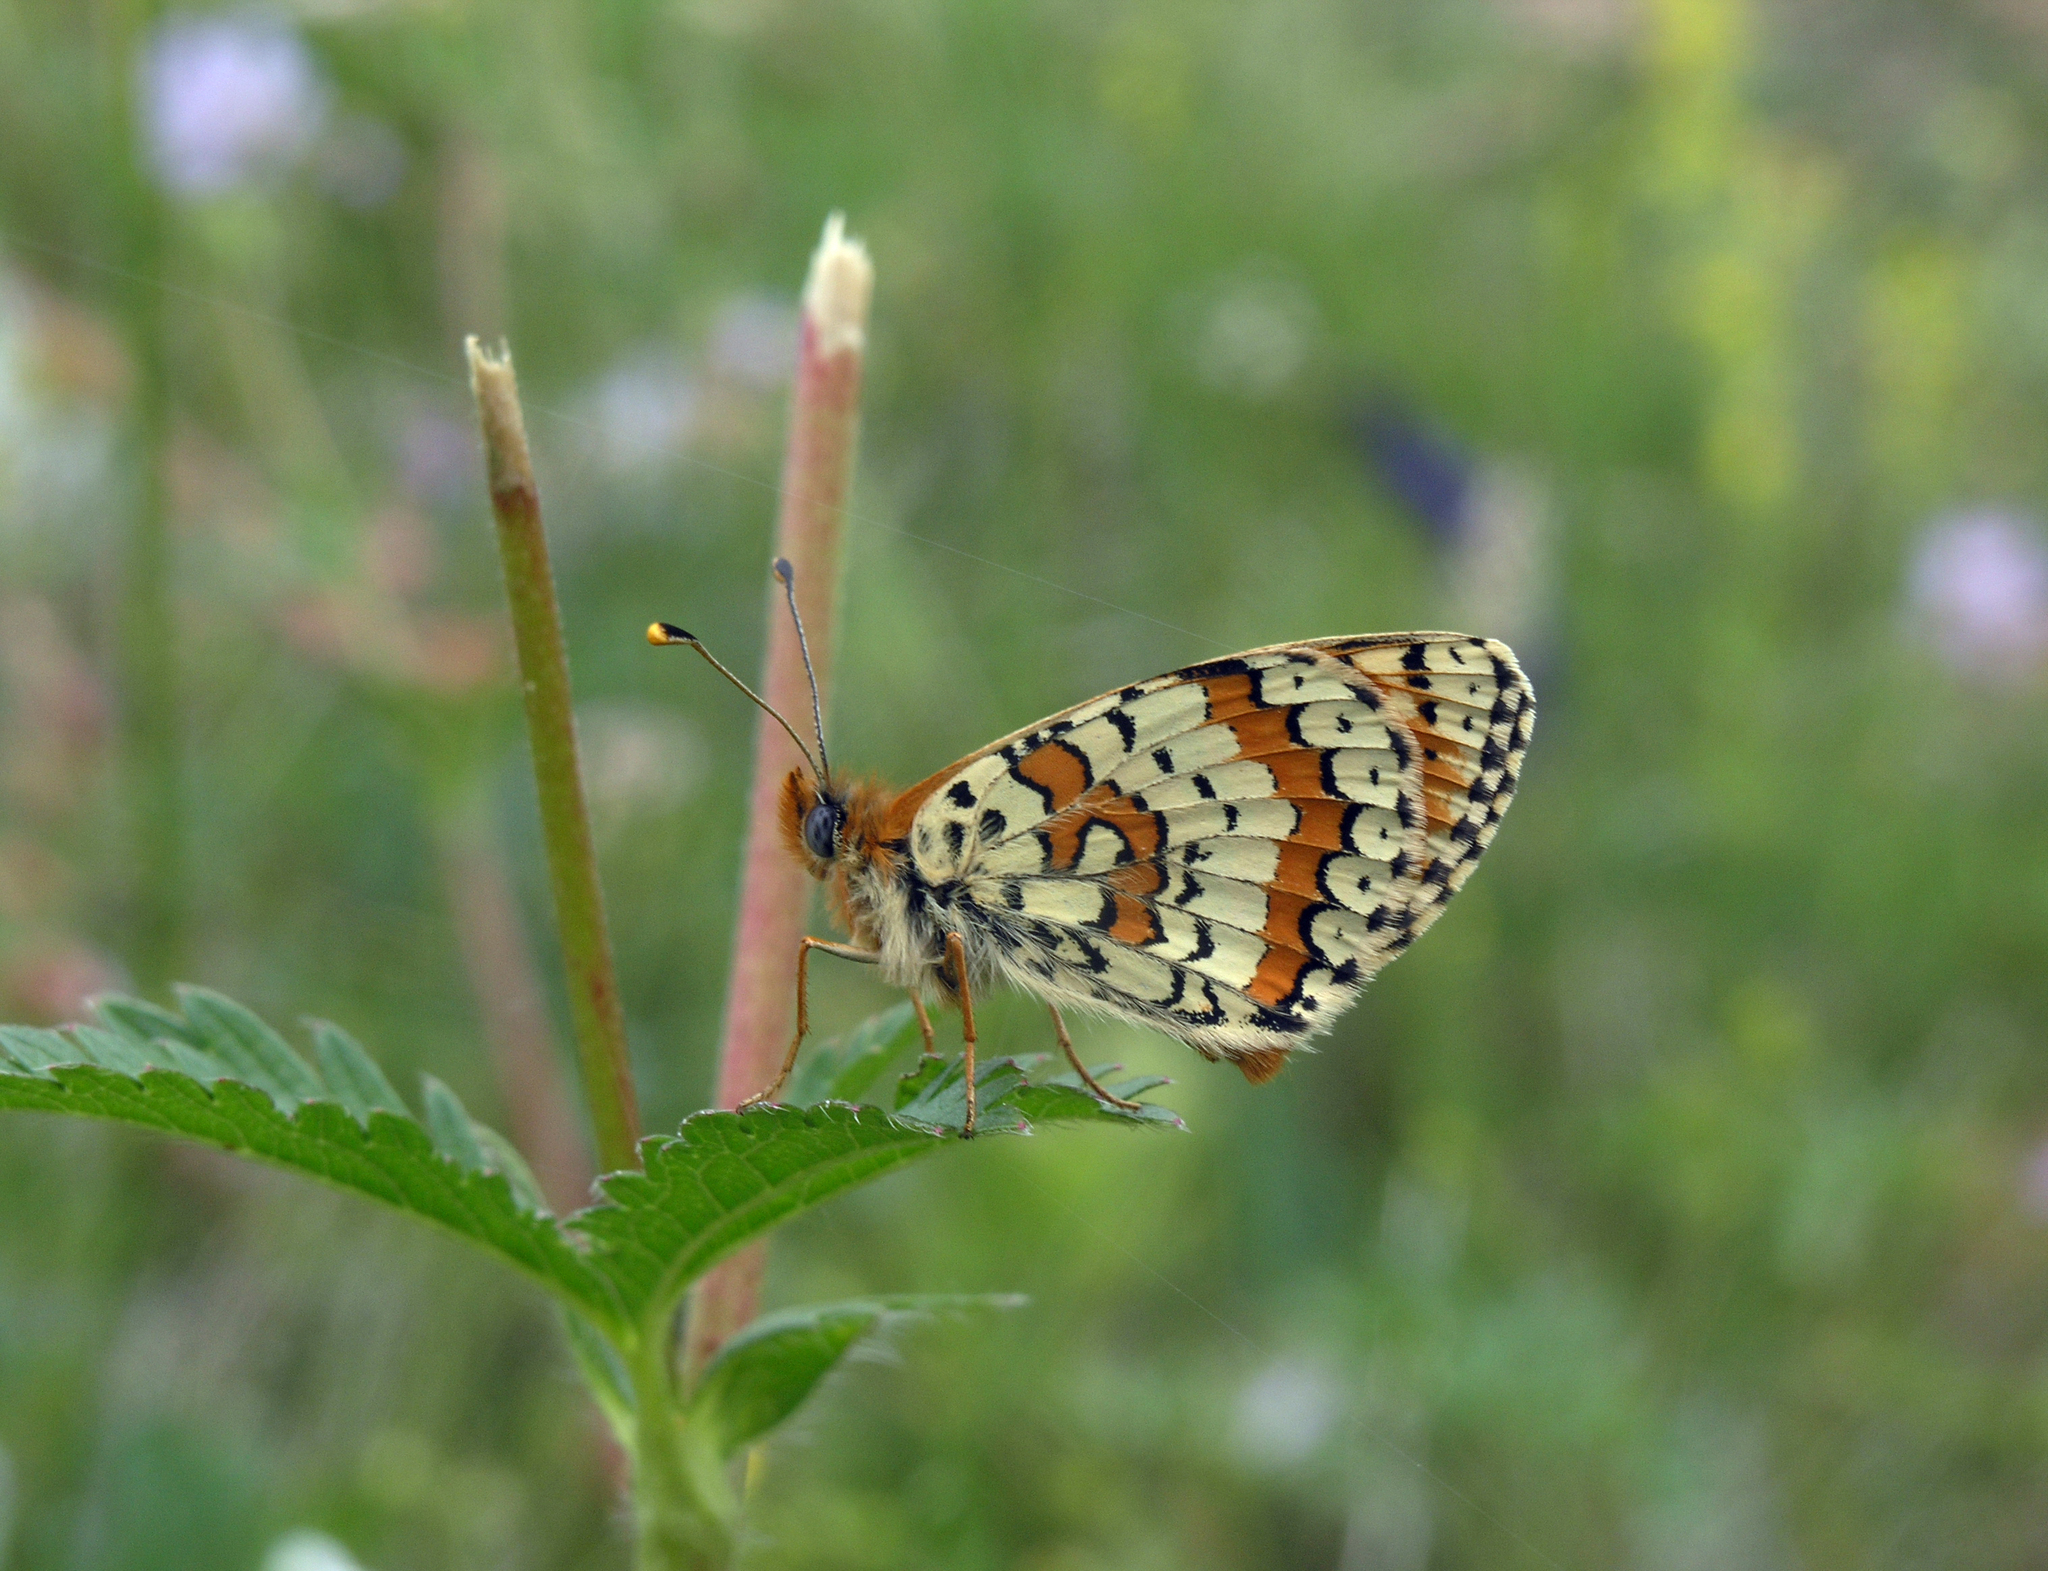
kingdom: Animalia
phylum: Arthropoda
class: Insecta
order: Lepidoptera
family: Nymphalidae
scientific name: Nymphalidae
